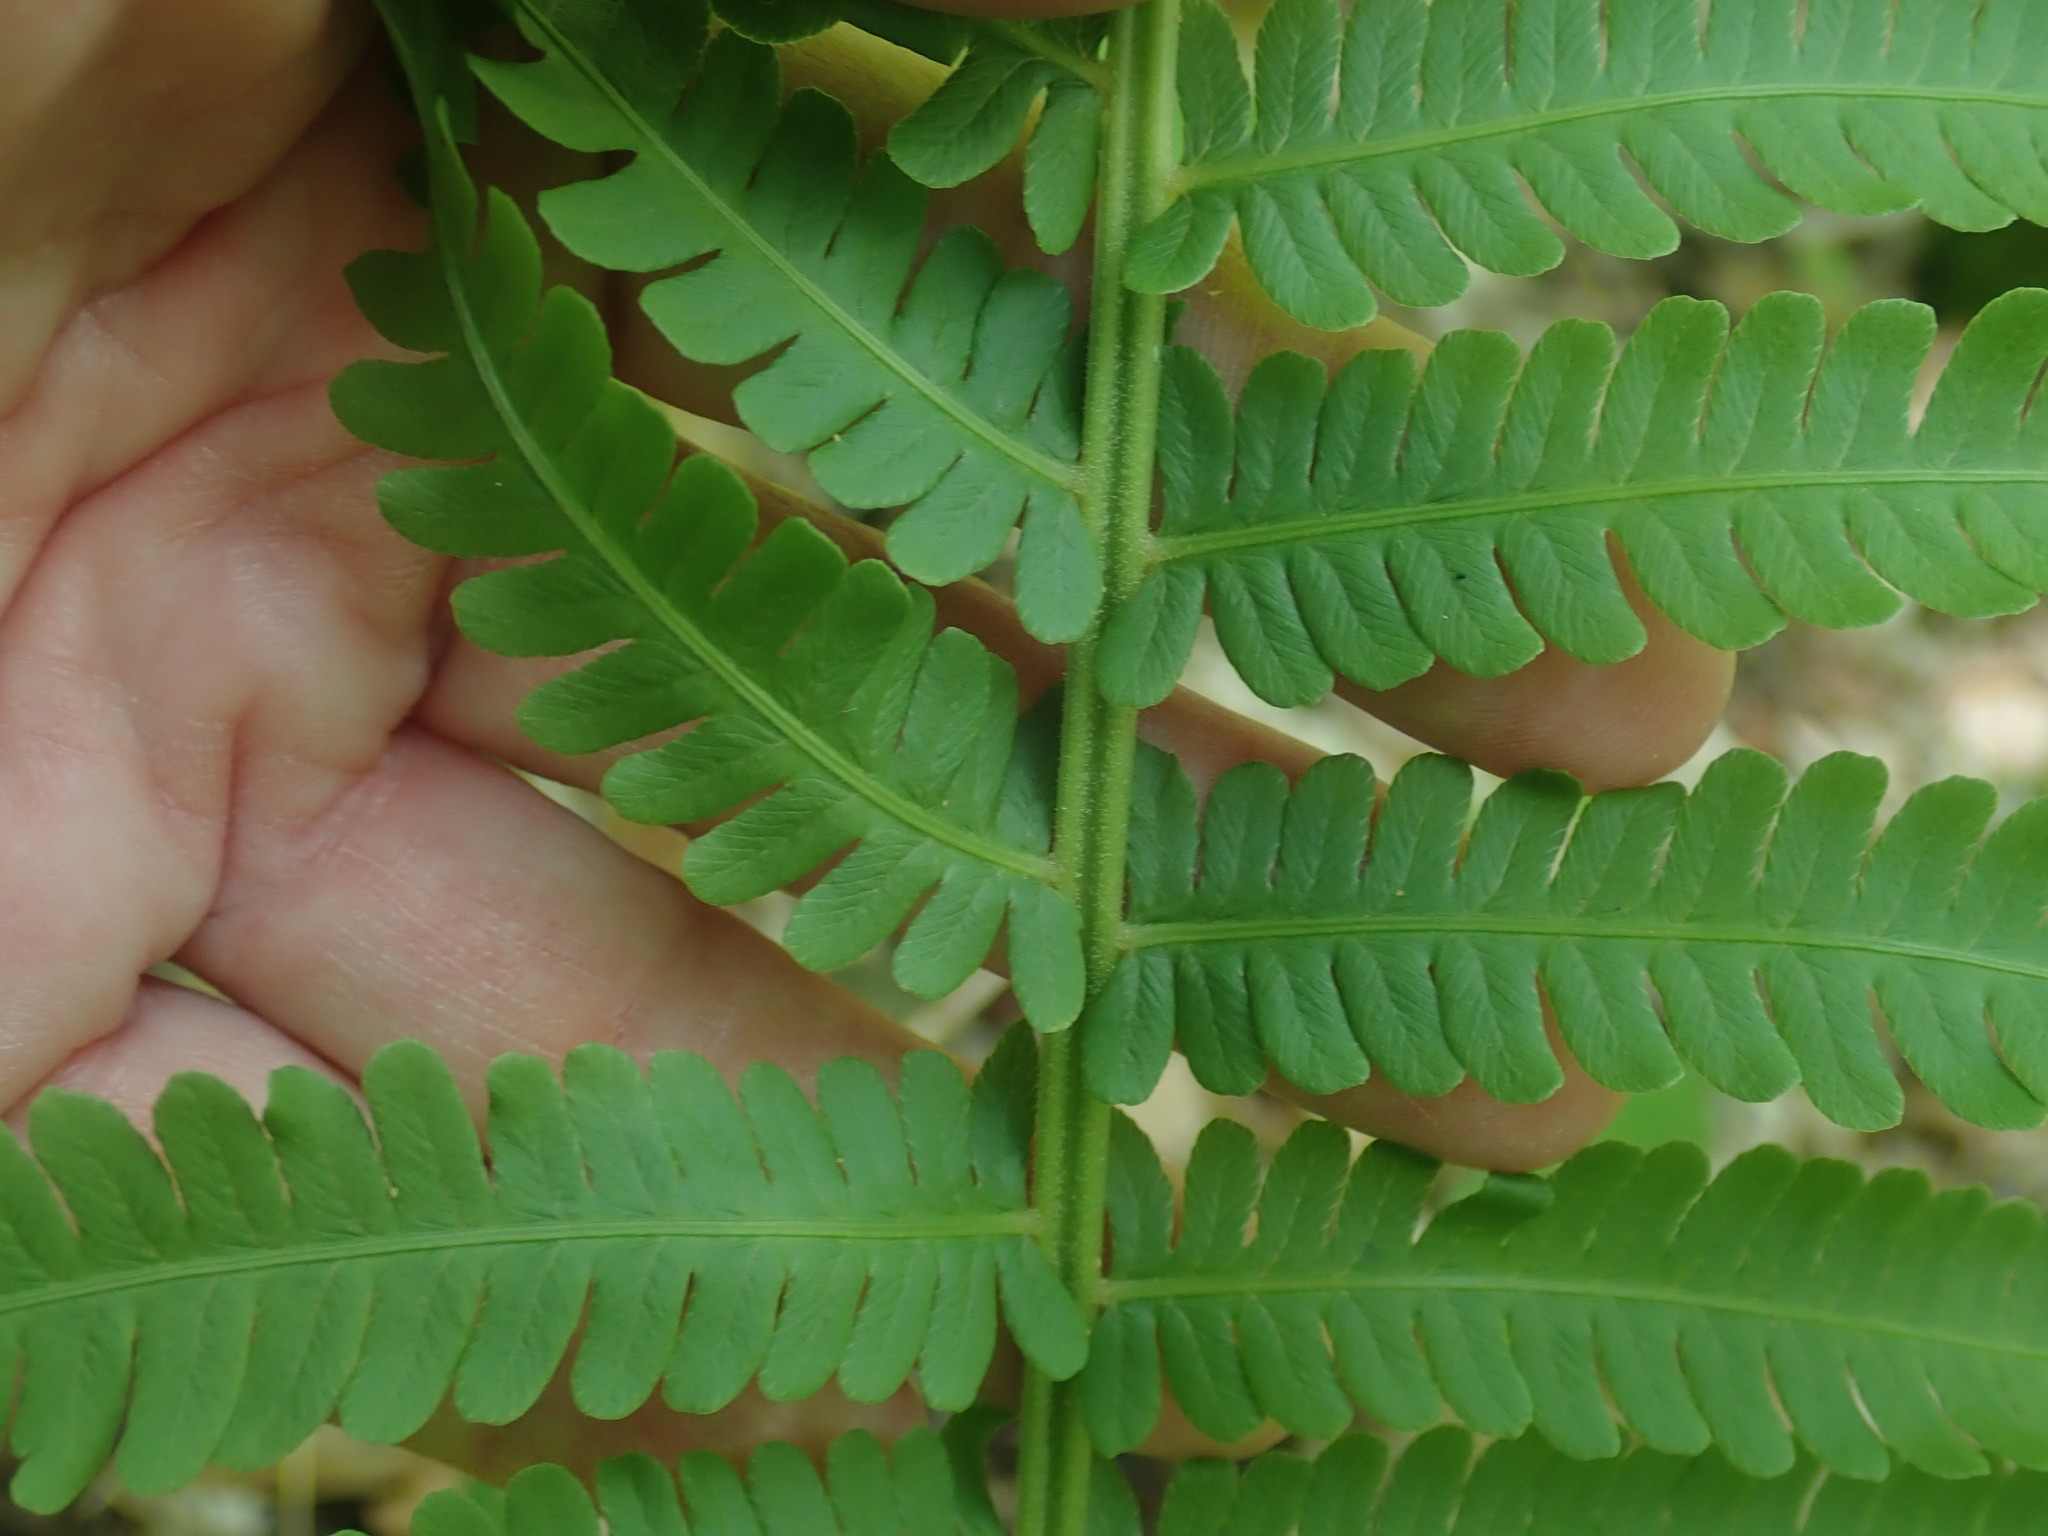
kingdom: Plantae
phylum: Tracheophyta
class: Polypodiopsida
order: Polypodiales
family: Onocleaceae
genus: Matteuccia
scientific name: Matteuccia struthiopteris
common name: Ostrich fern
